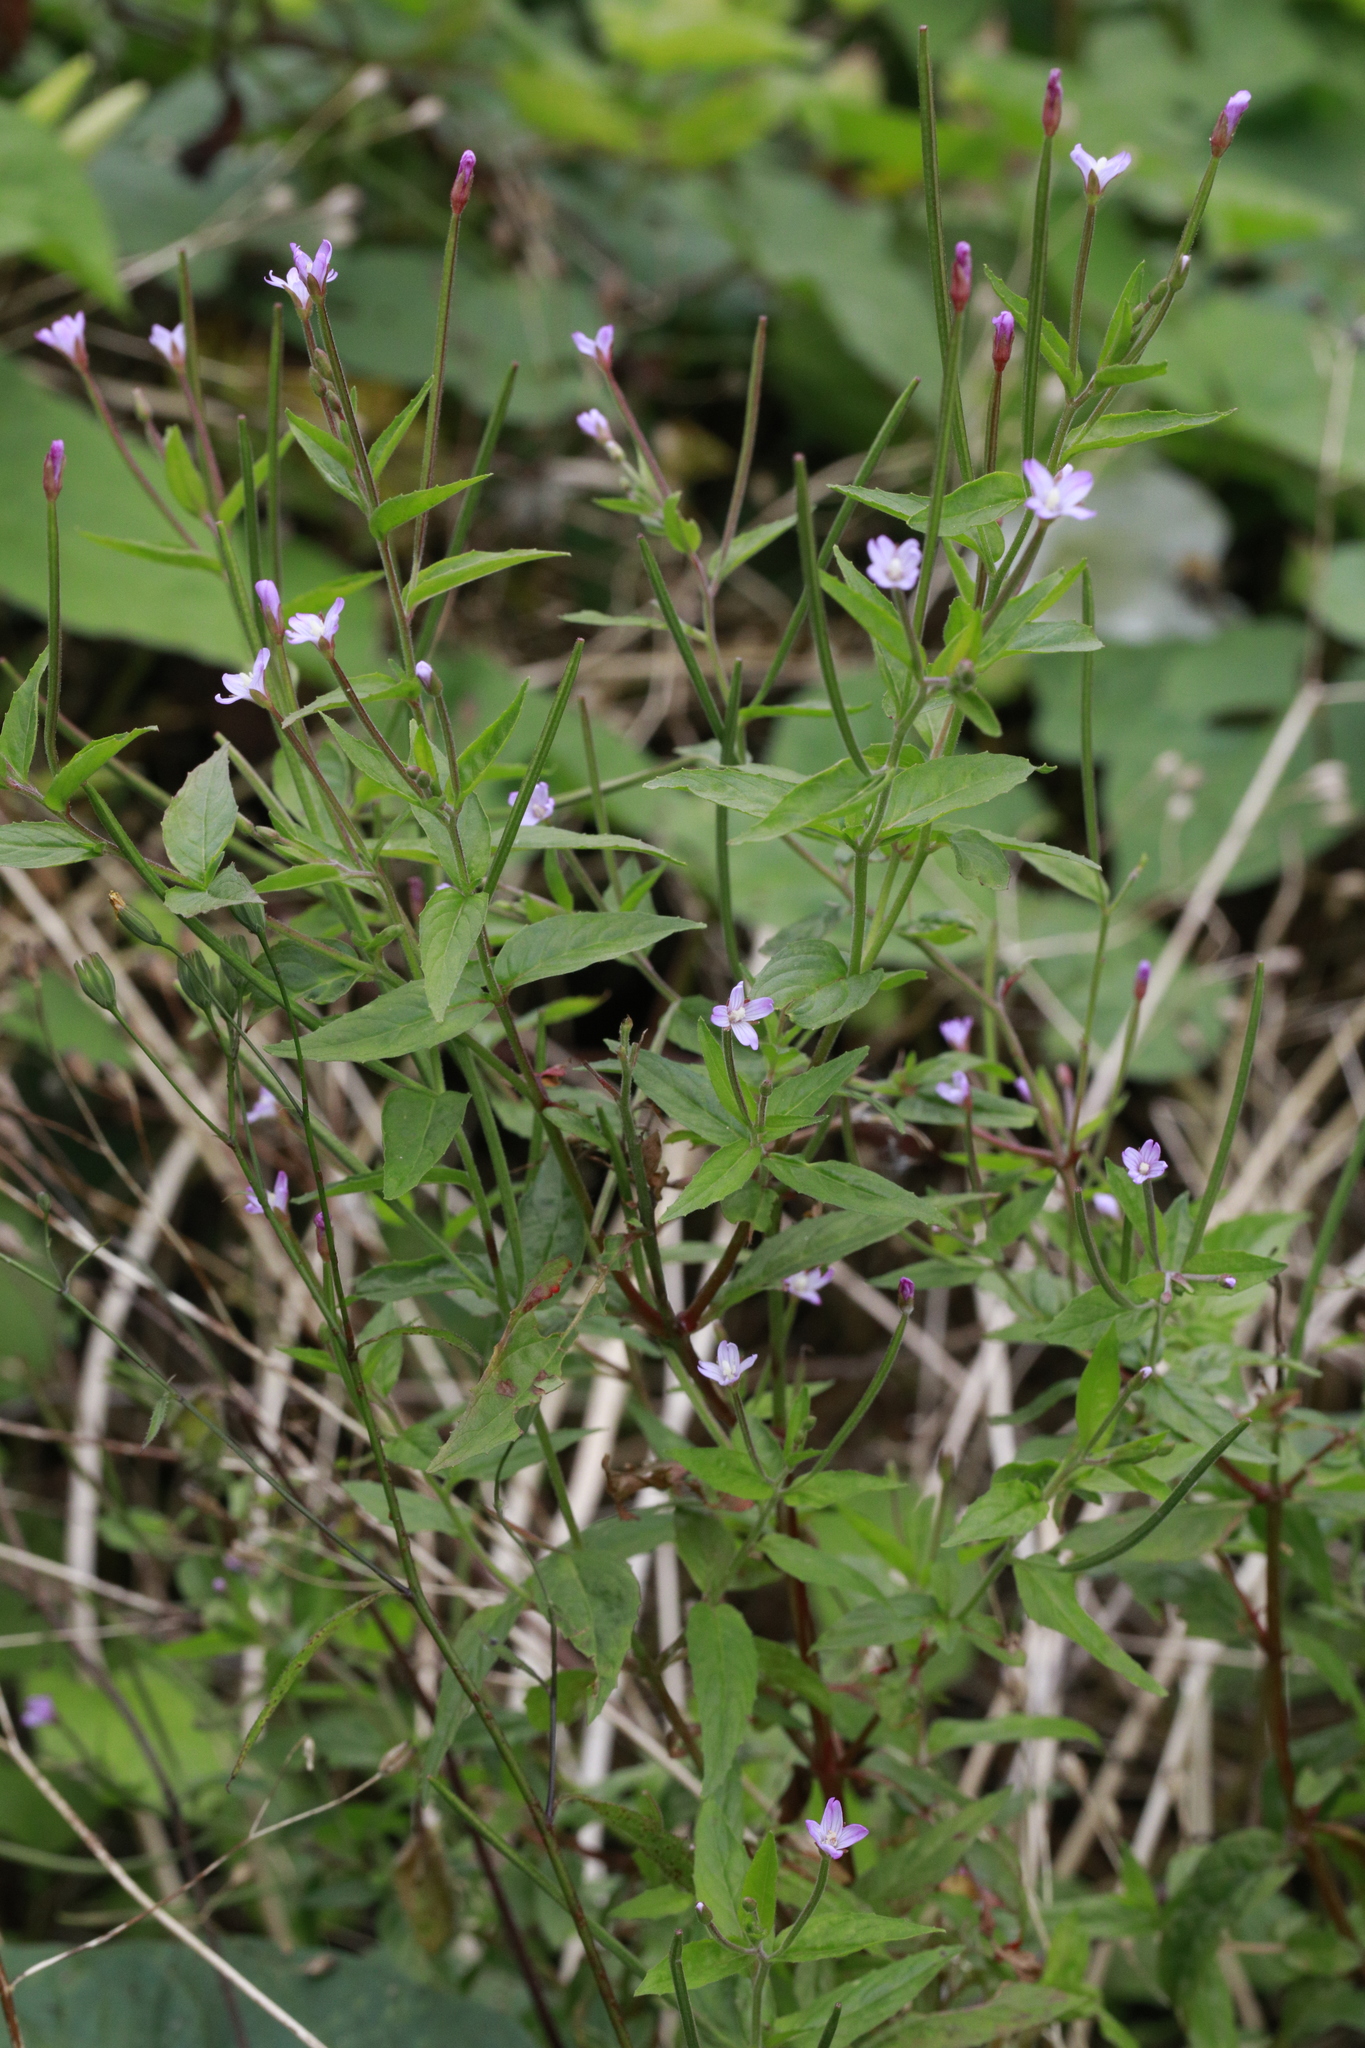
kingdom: Plantae
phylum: Tracheophyta
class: Magnoliopsida
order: Myrtales
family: Onagraceae
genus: Epilobium
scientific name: Epilobium ciliatum
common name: American willowherb
